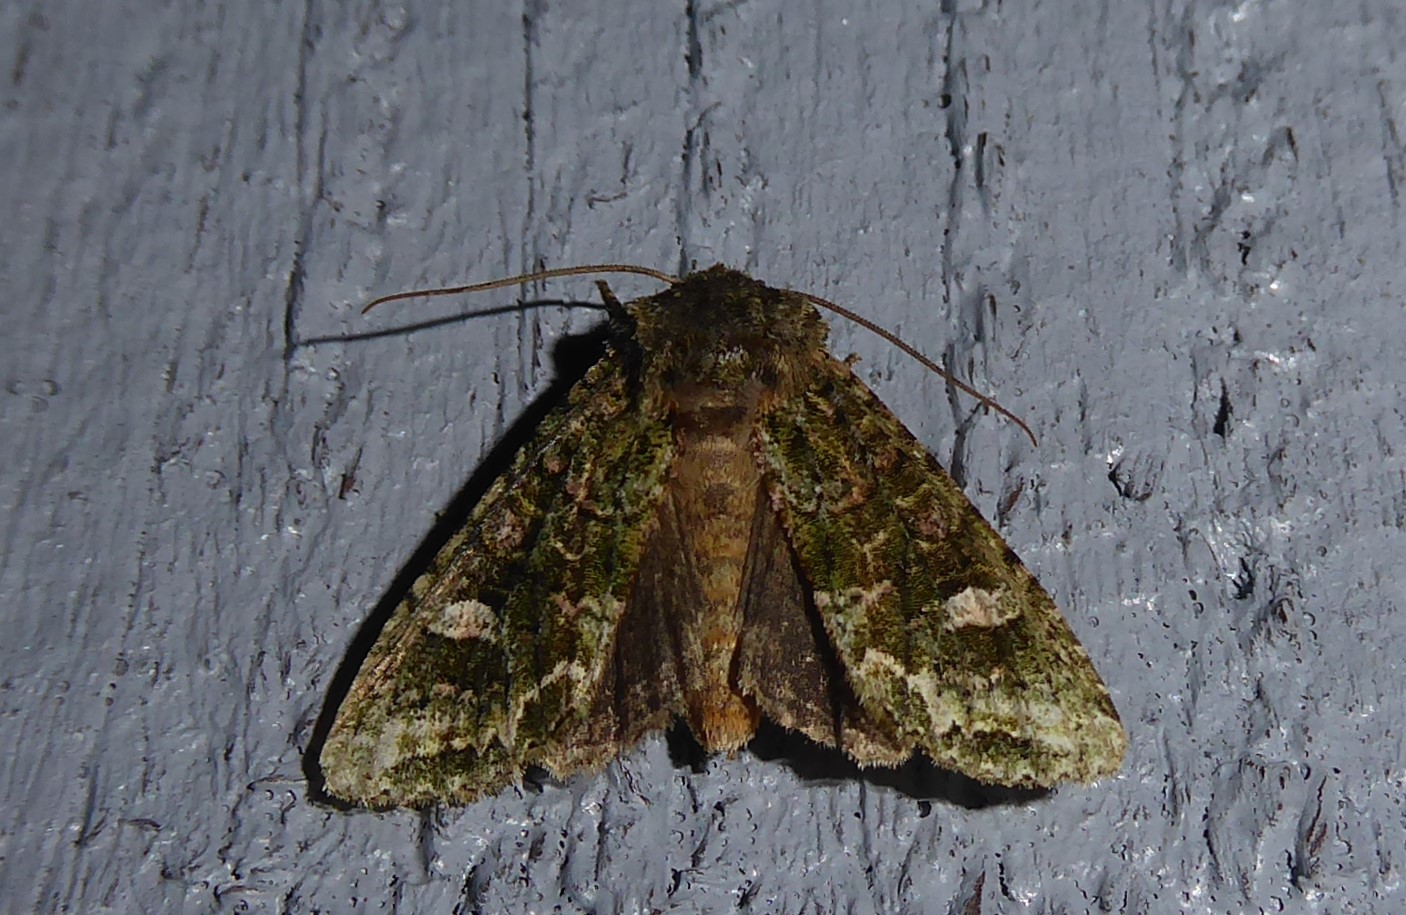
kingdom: Animalia
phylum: Arthropoda
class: Insecta
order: Lepidoptera
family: Noctuidae
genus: Ichneutica
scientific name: Ichneutica
